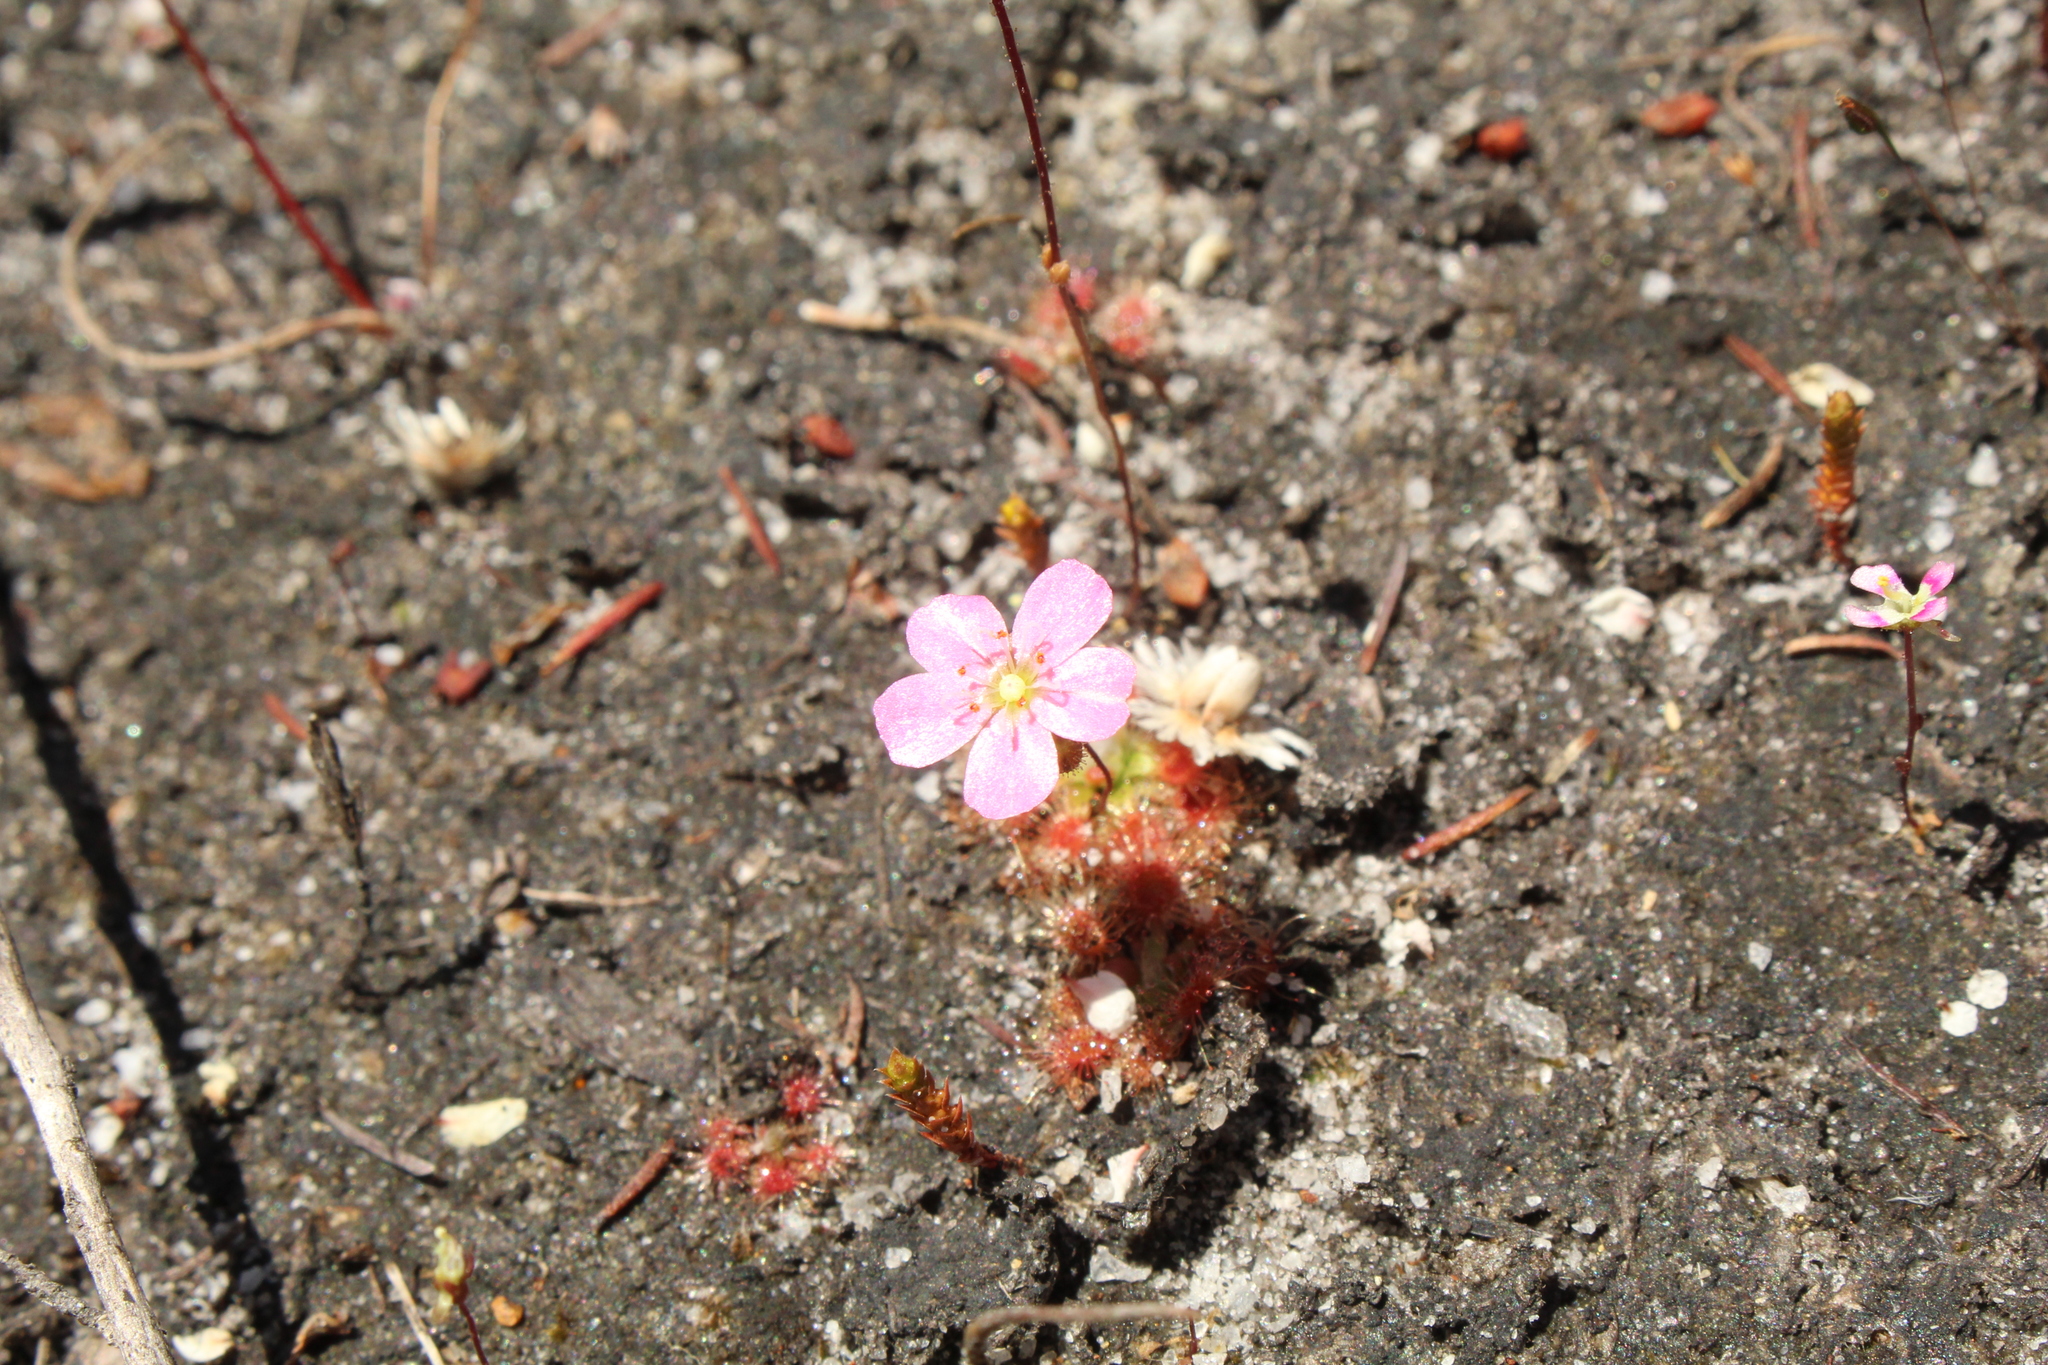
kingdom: Plantae
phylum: Tracheophyta
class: Magnoliopsida
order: Caryophyllales
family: Droseraceae
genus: Drosera
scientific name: Drosera pulchella
